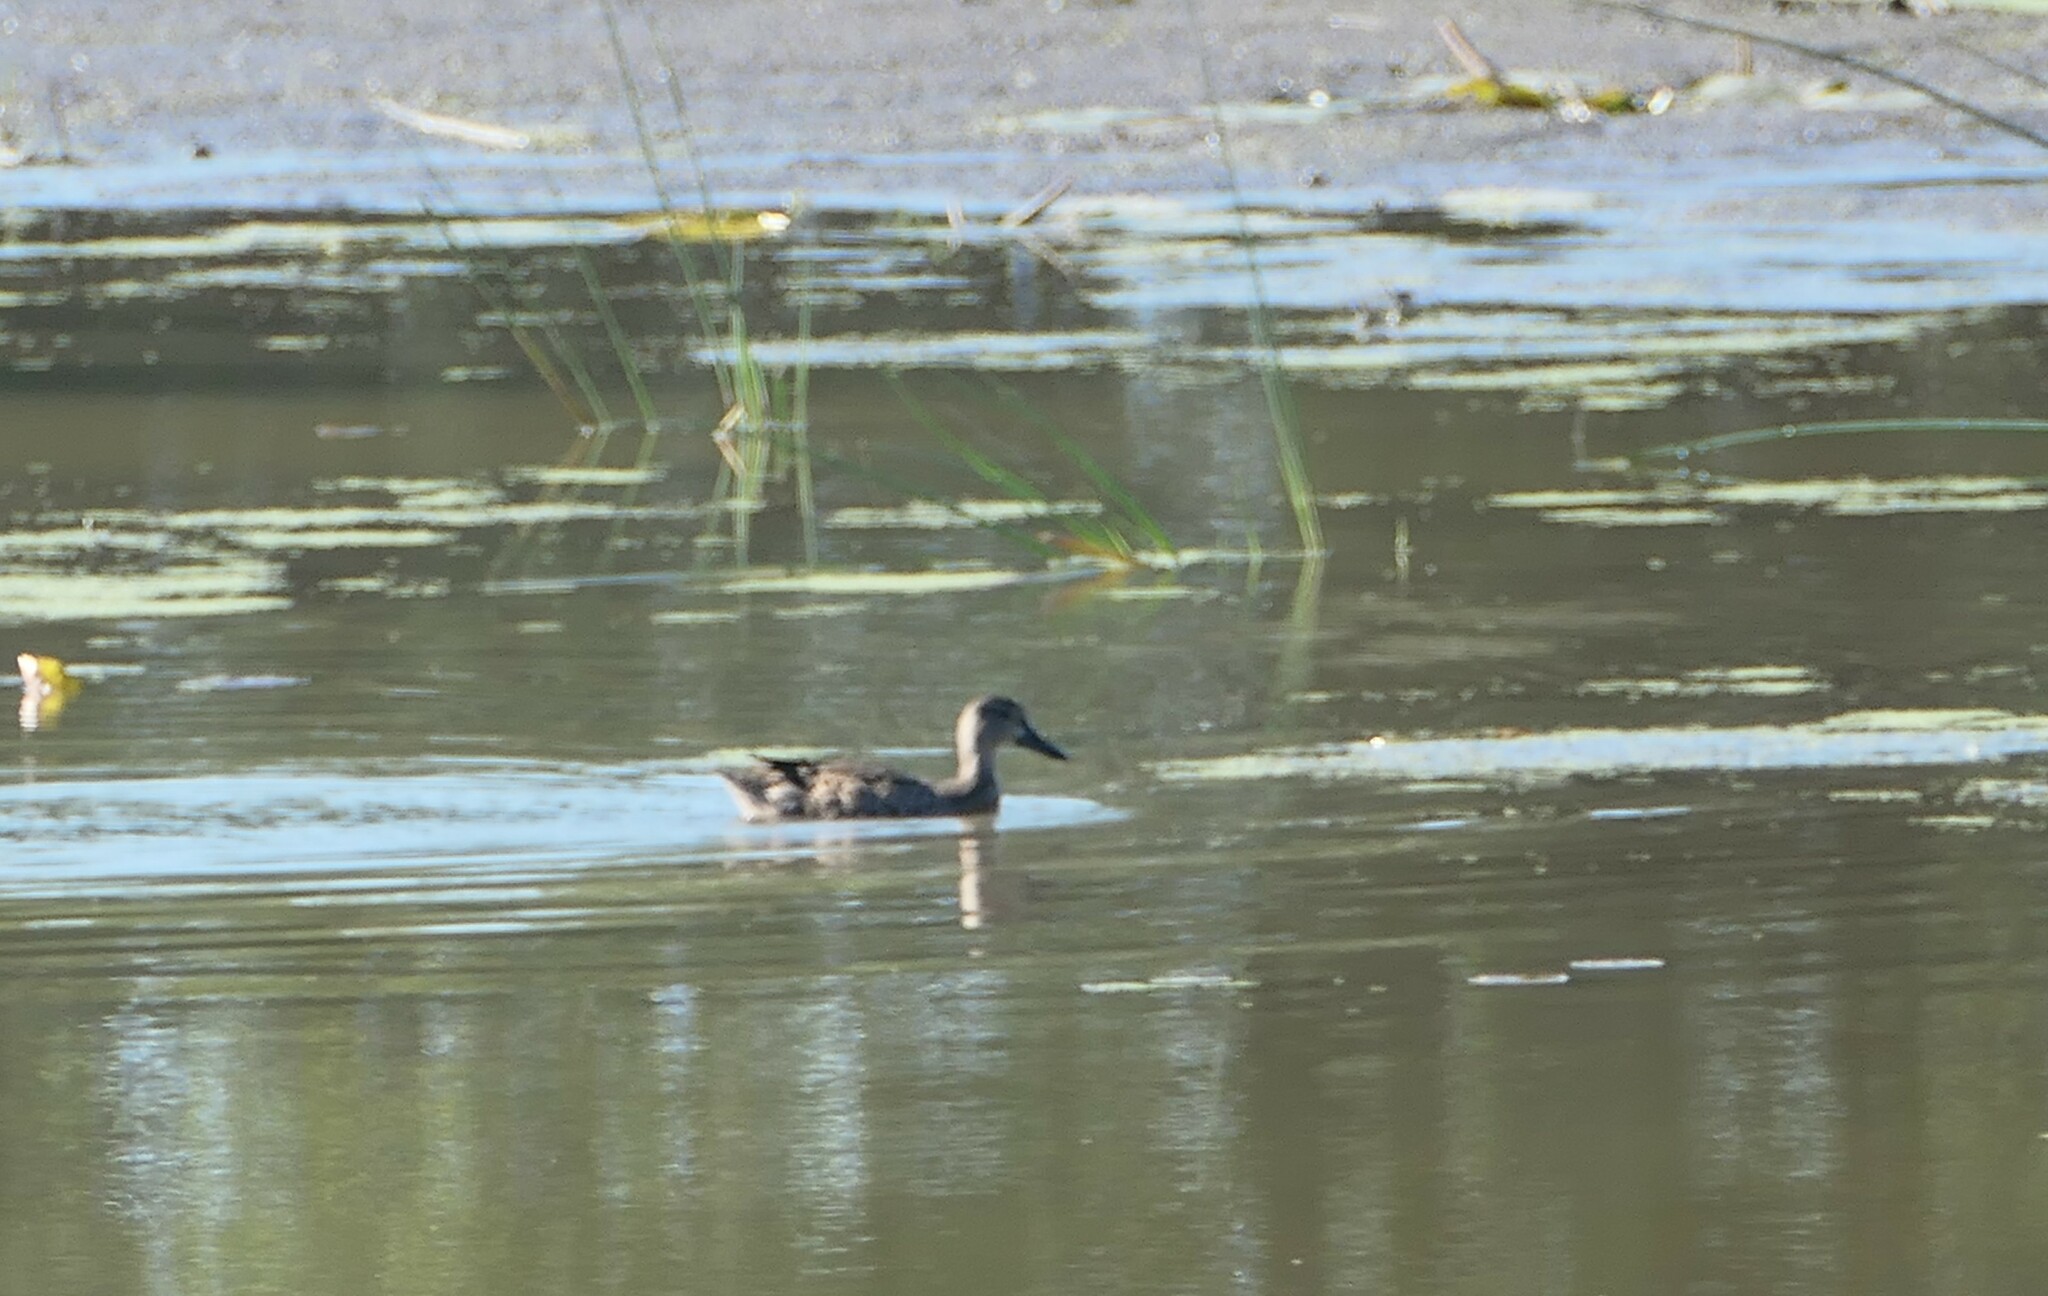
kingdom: Animalia
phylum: Chordata
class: Aves
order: Anseriformes
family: Anatidae
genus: Spatula
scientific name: Spatula discors
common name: Blue-winged teal
